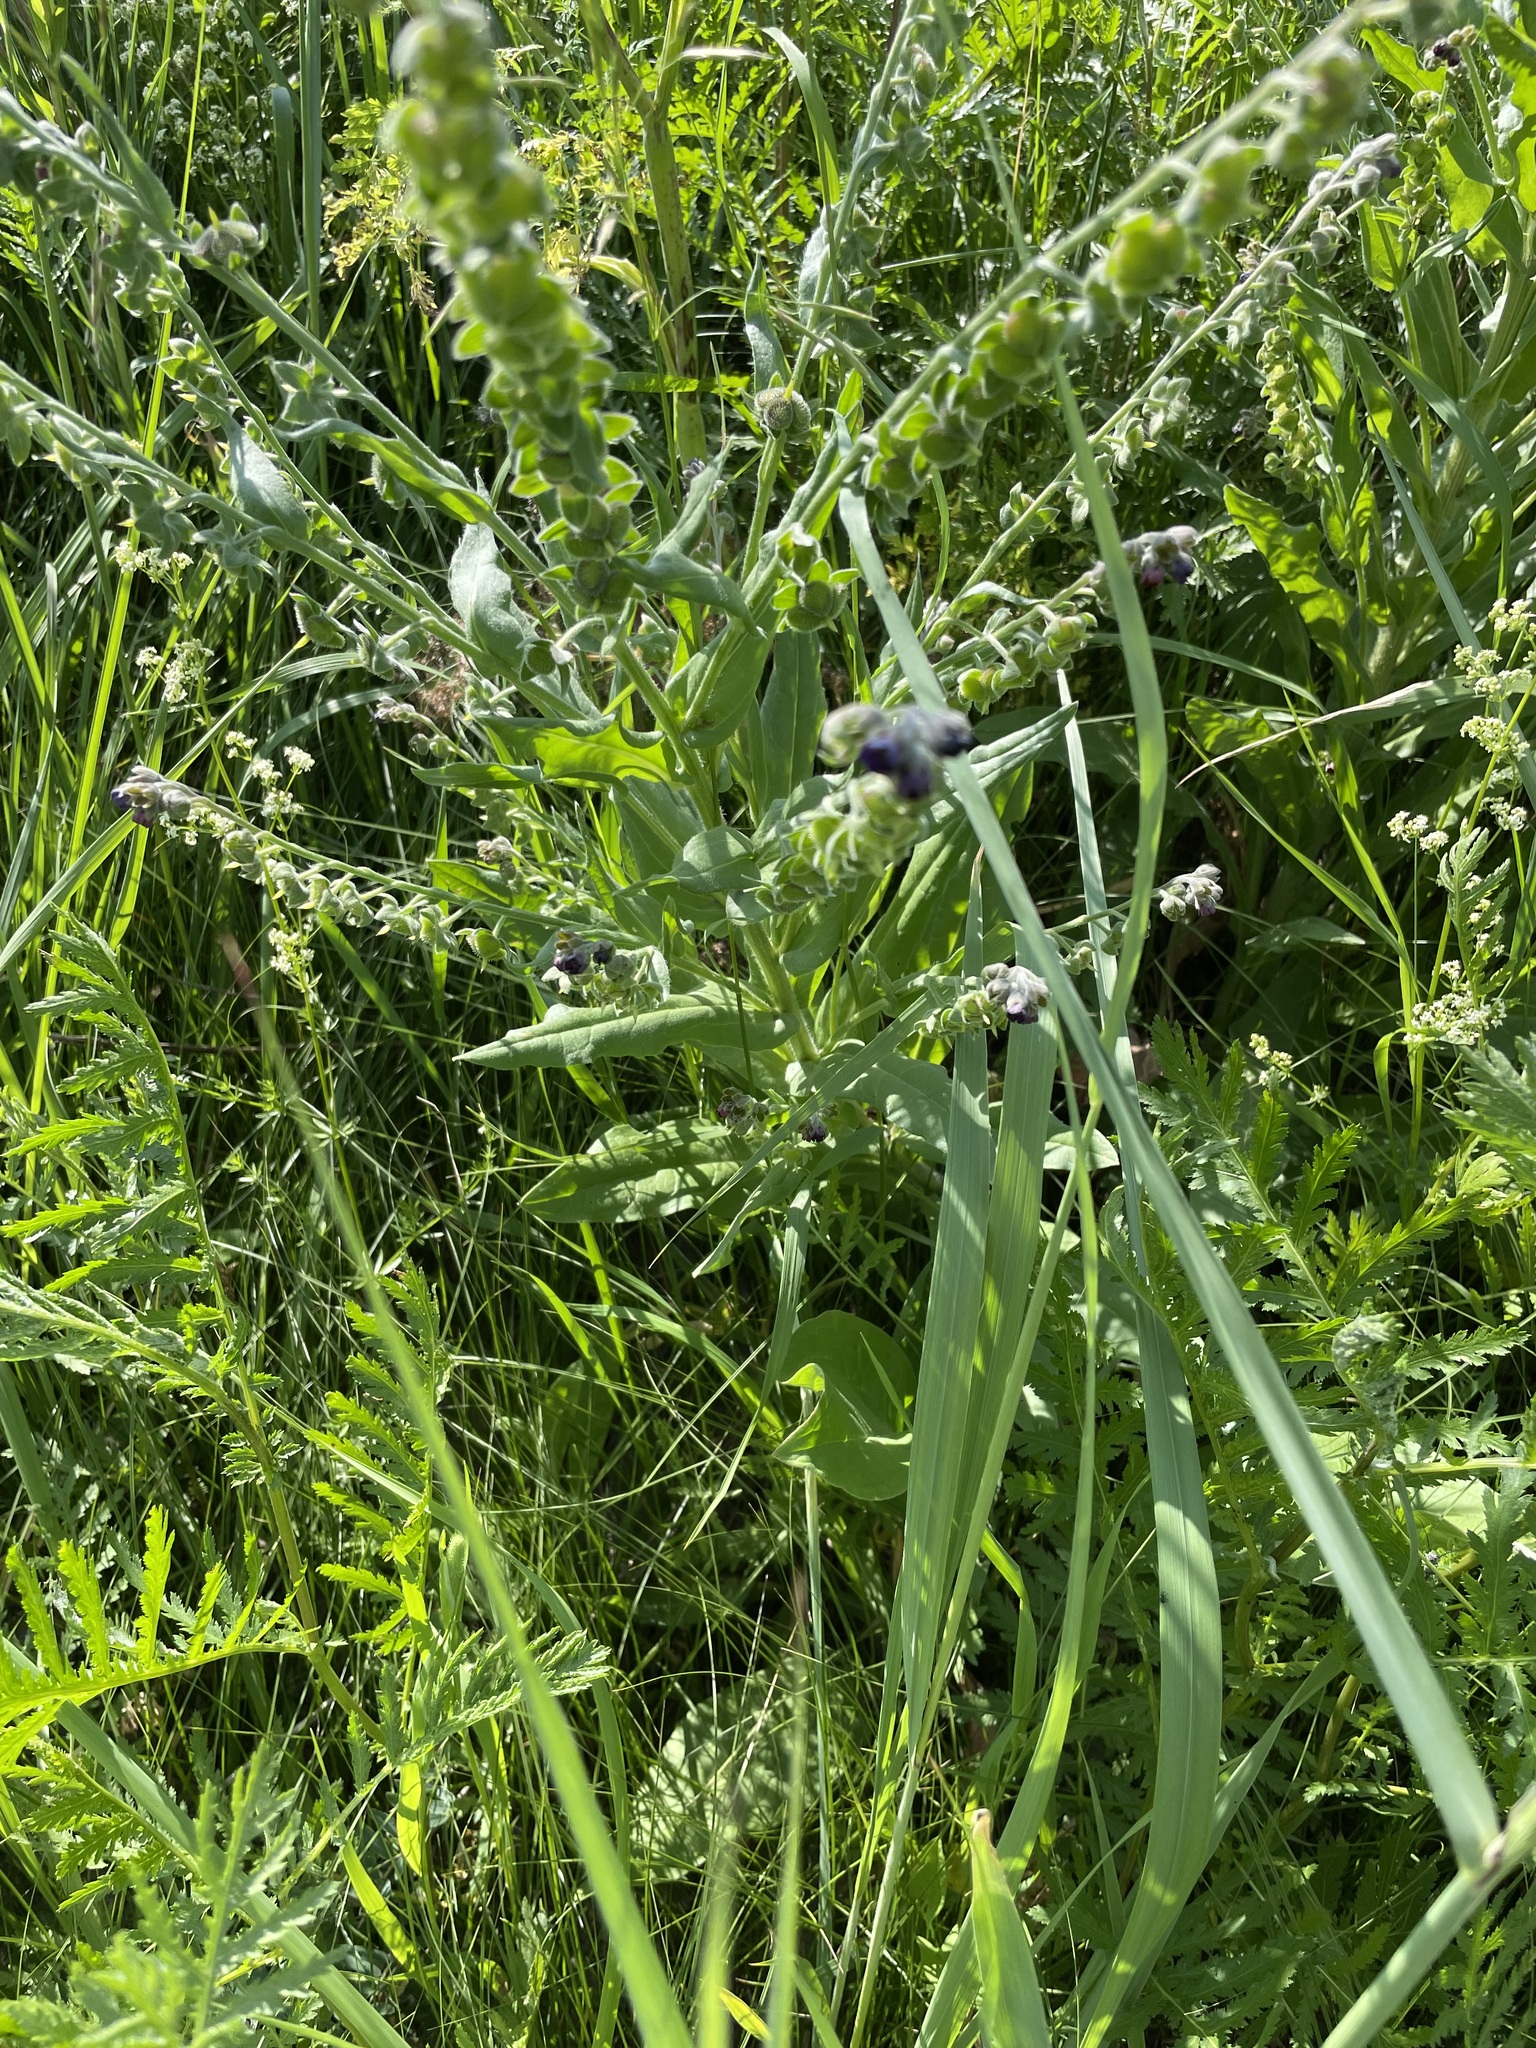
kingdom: Plantae
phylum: Tracheophyta
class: Magnoliopsida
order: Boraginales
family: Boraginaceae
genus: Cynoglossum
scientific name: Cynoglossum officinale
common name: Hound's-tongue
